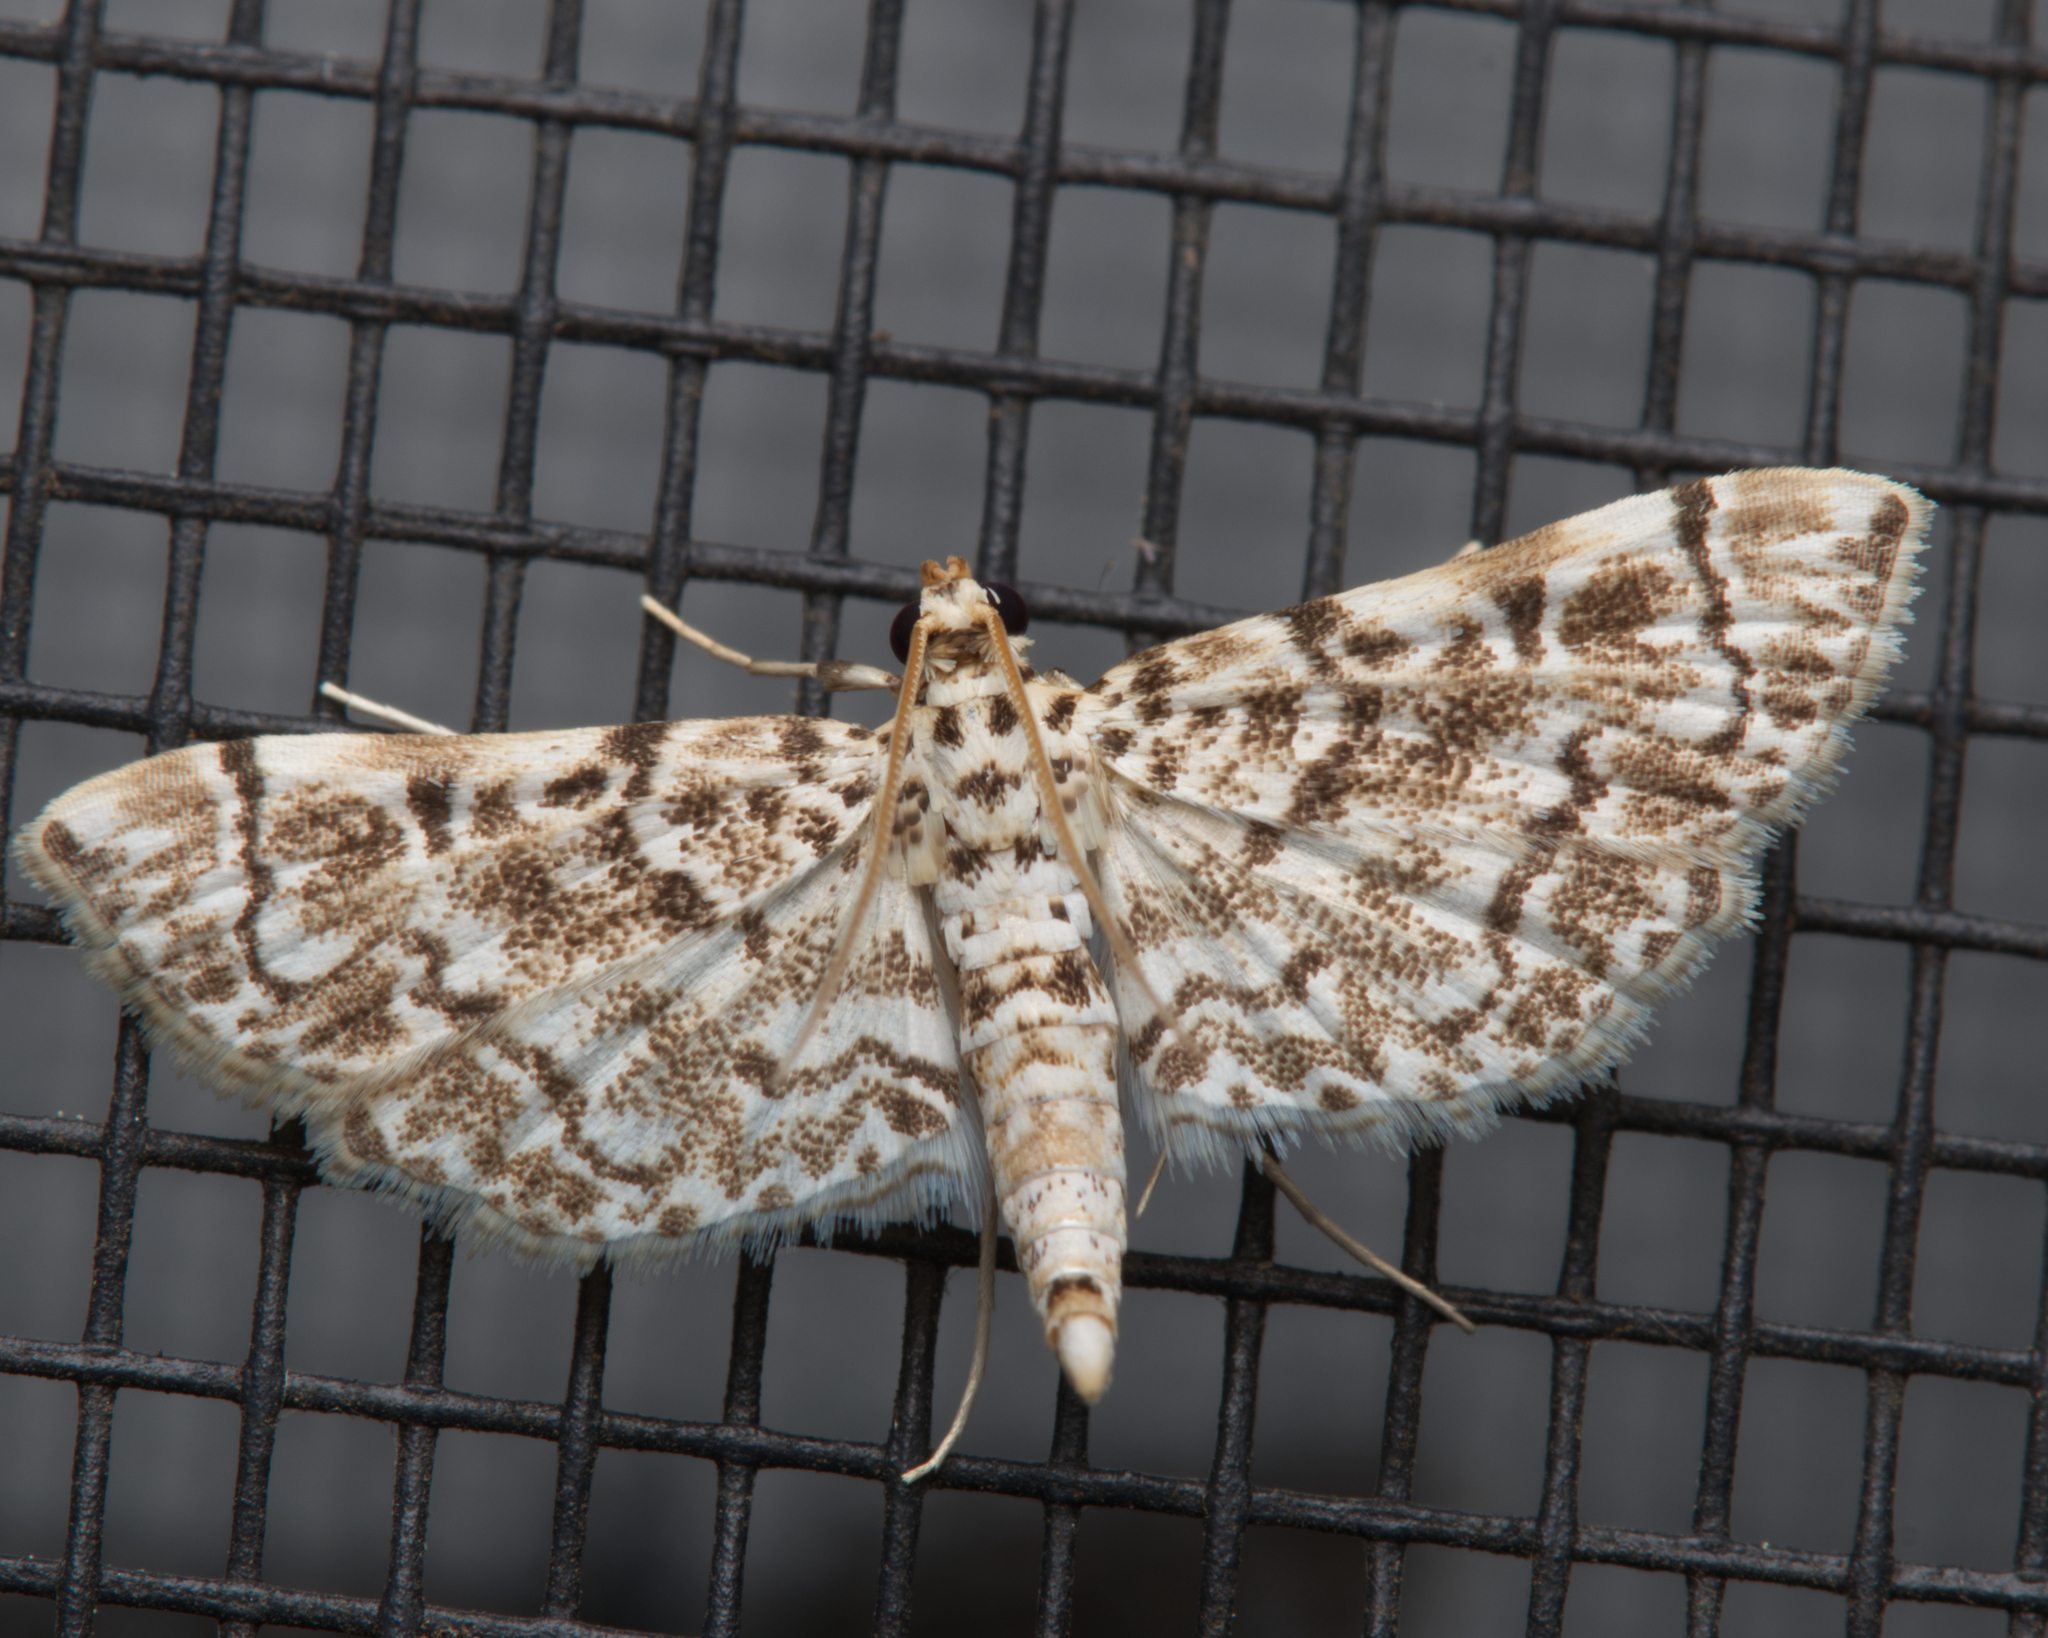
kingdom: Animalia
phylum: Arthropoda
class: Insecta
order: Lepidoptera
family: Crambidae
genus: Metoeca
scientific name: Metoeca foedalis
